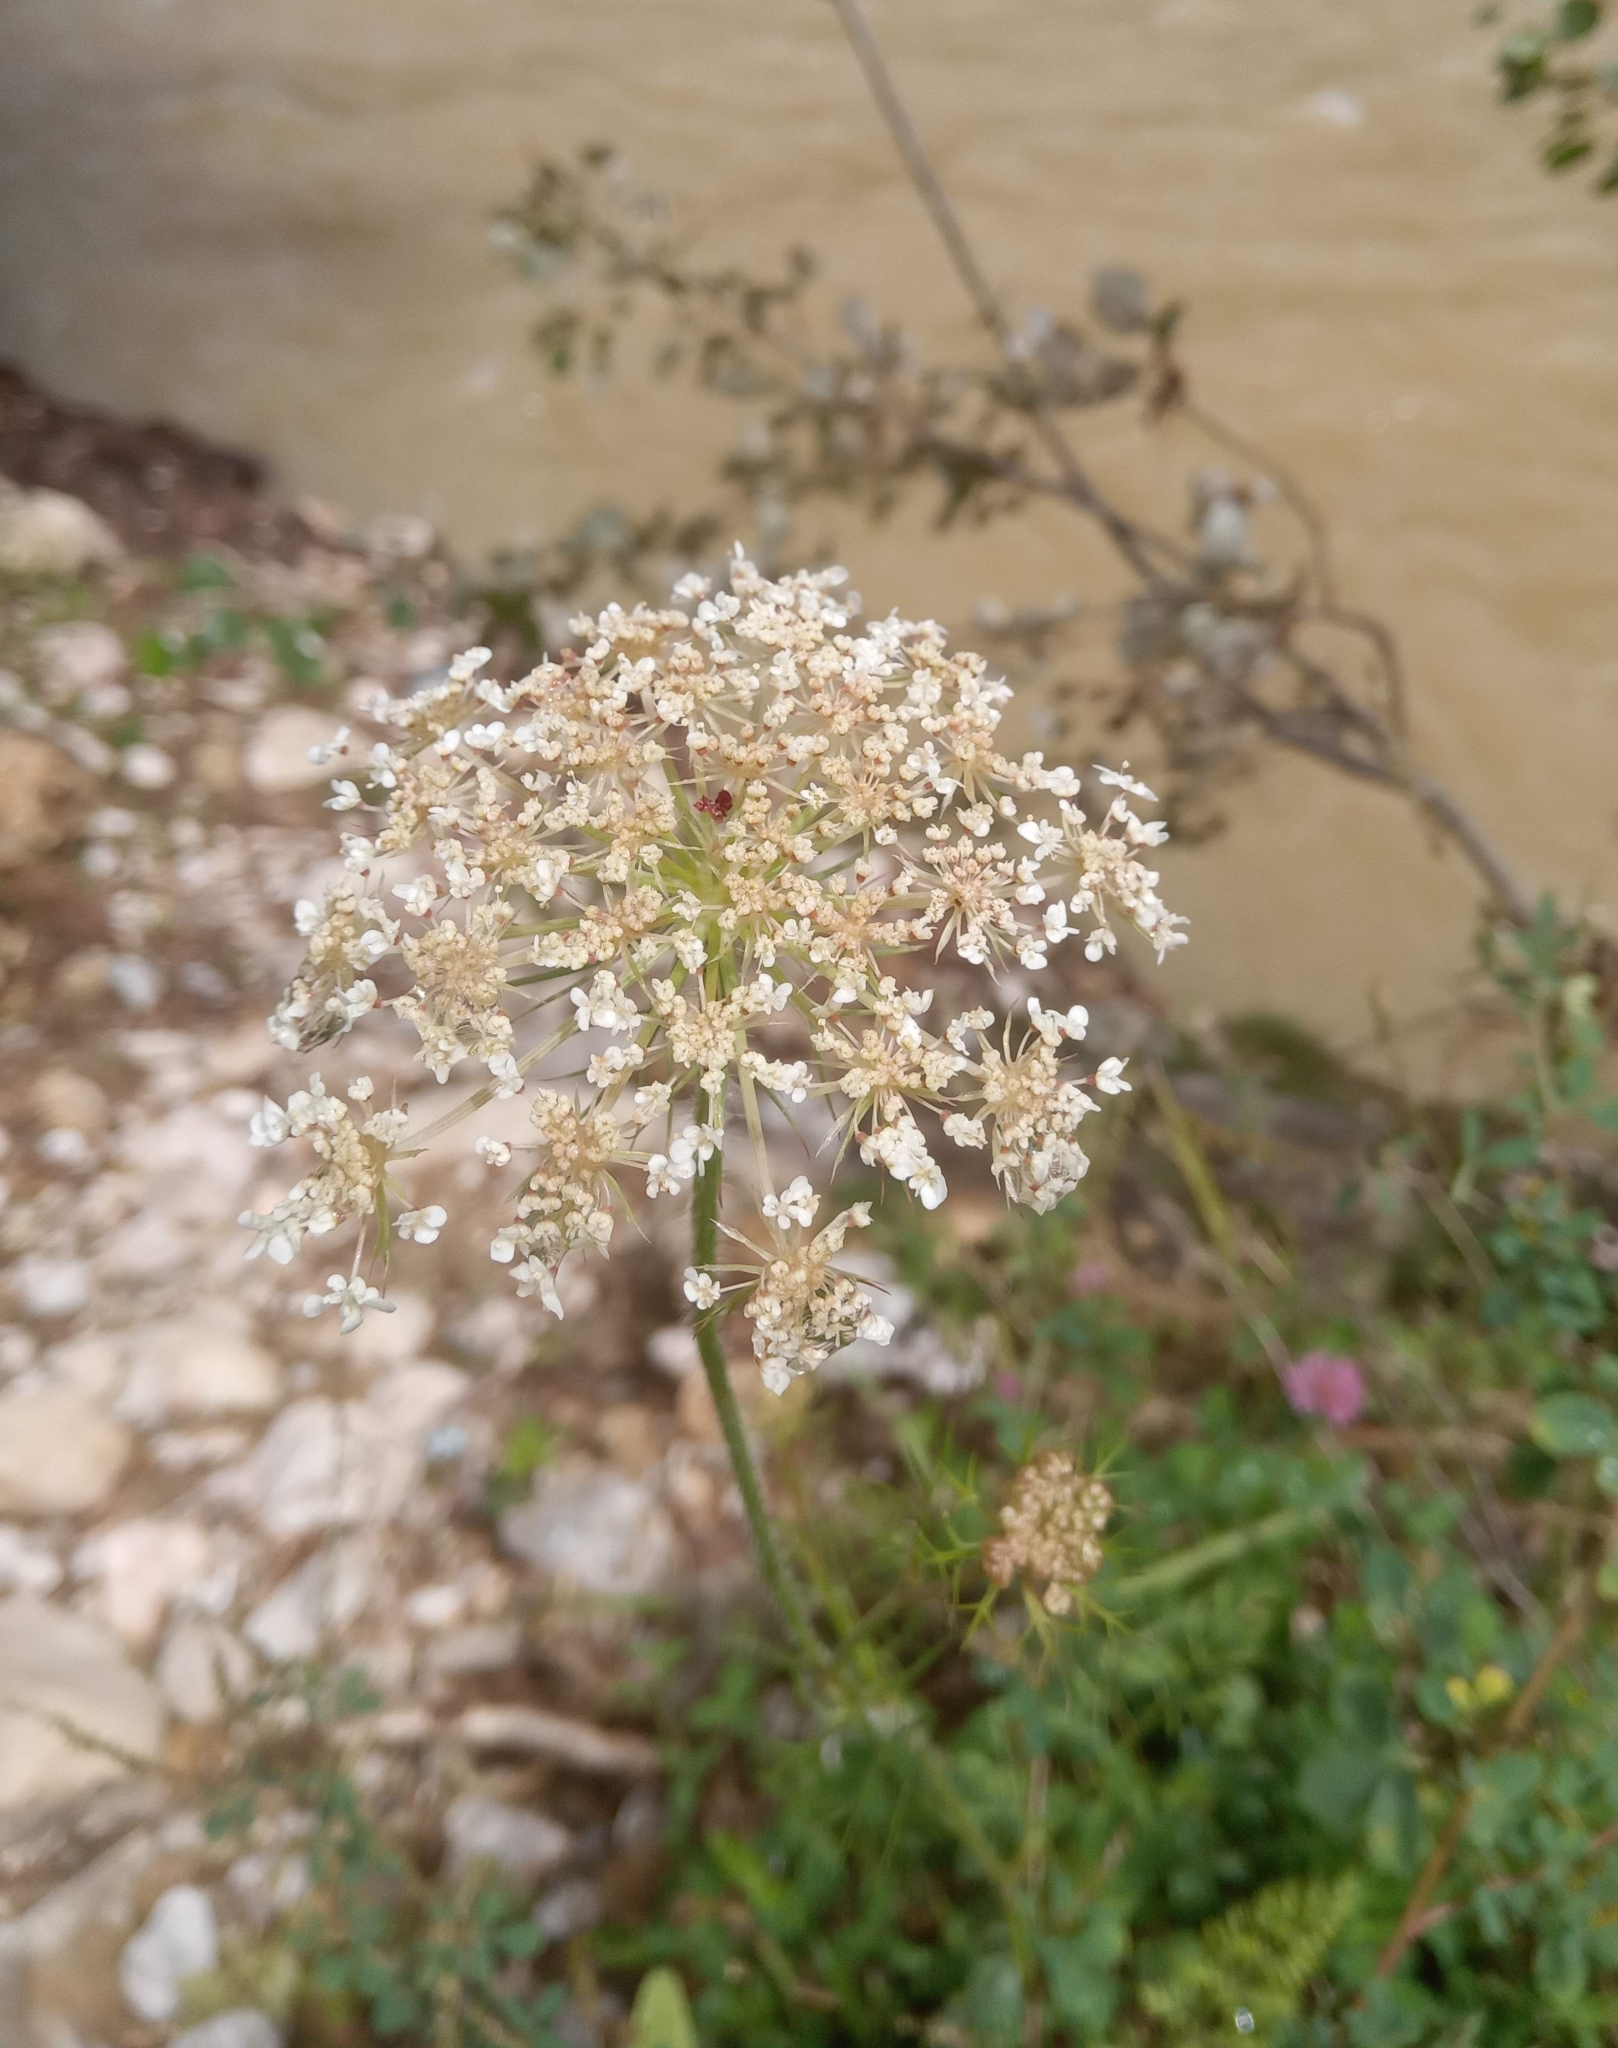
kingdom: Plantae
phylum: Tracheophyta
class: Magnoliopsida
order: Apiales
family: Apiaceae
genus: Daucus
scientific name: Daucus carota
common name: Wild carrot
